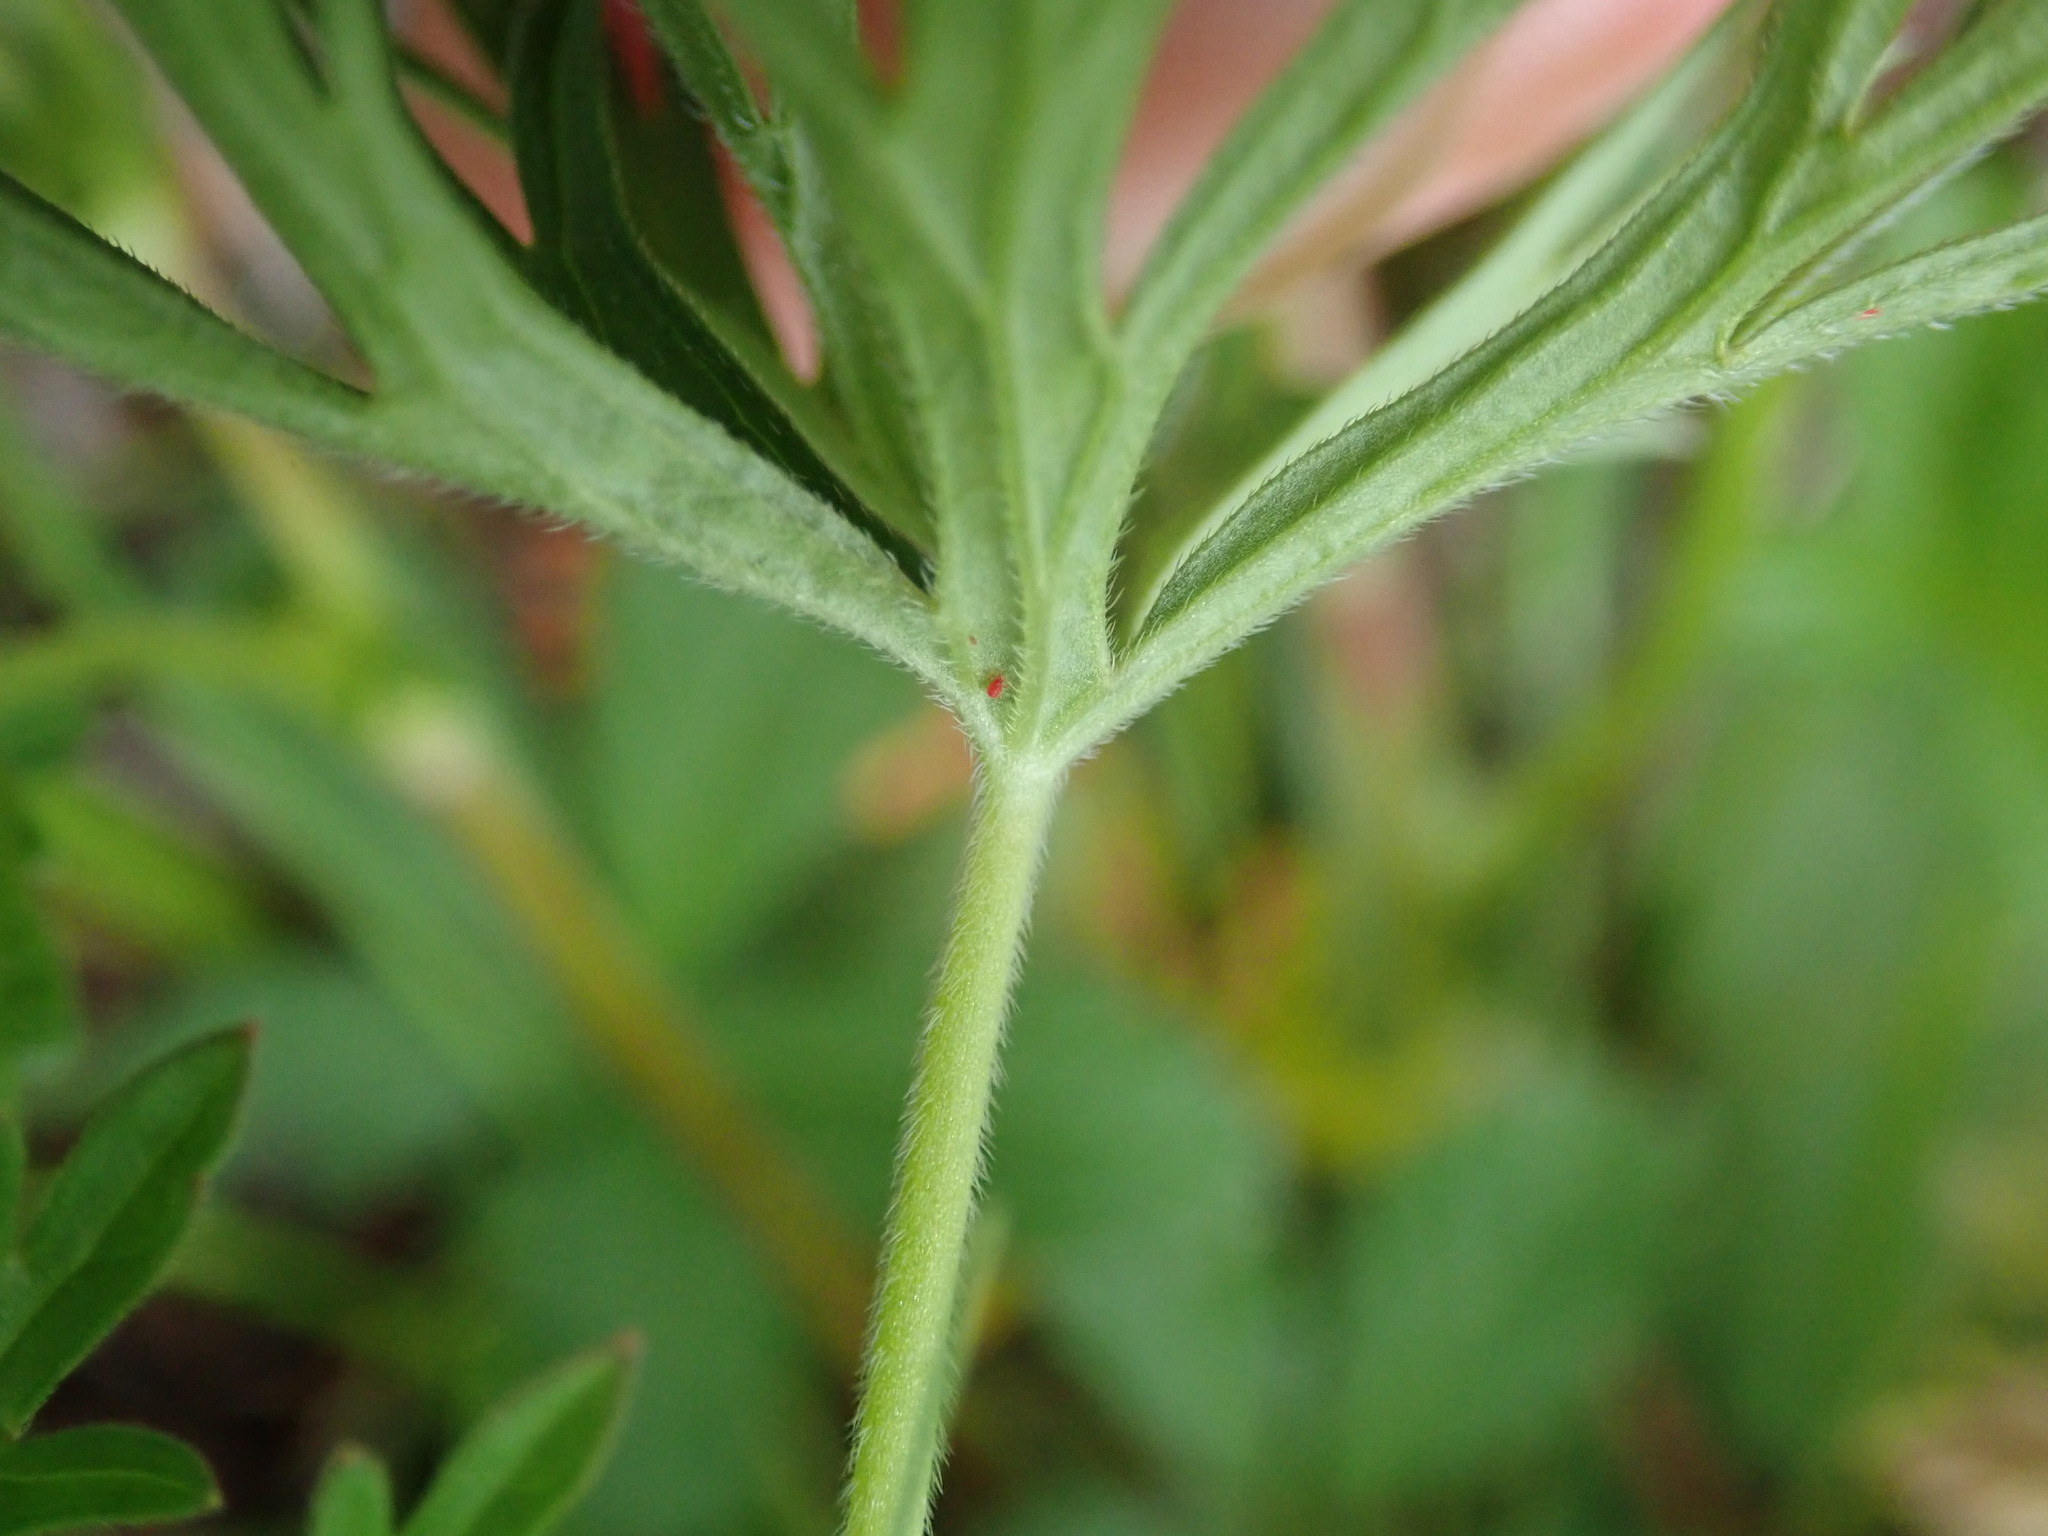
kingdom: Plantae
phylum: Tracheophyta
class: Magnoliopsida
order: Geraniales
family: Geraniaceae
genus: Geranium
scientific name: Geranium dissectum
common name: Cut-leaved crane's-bill
